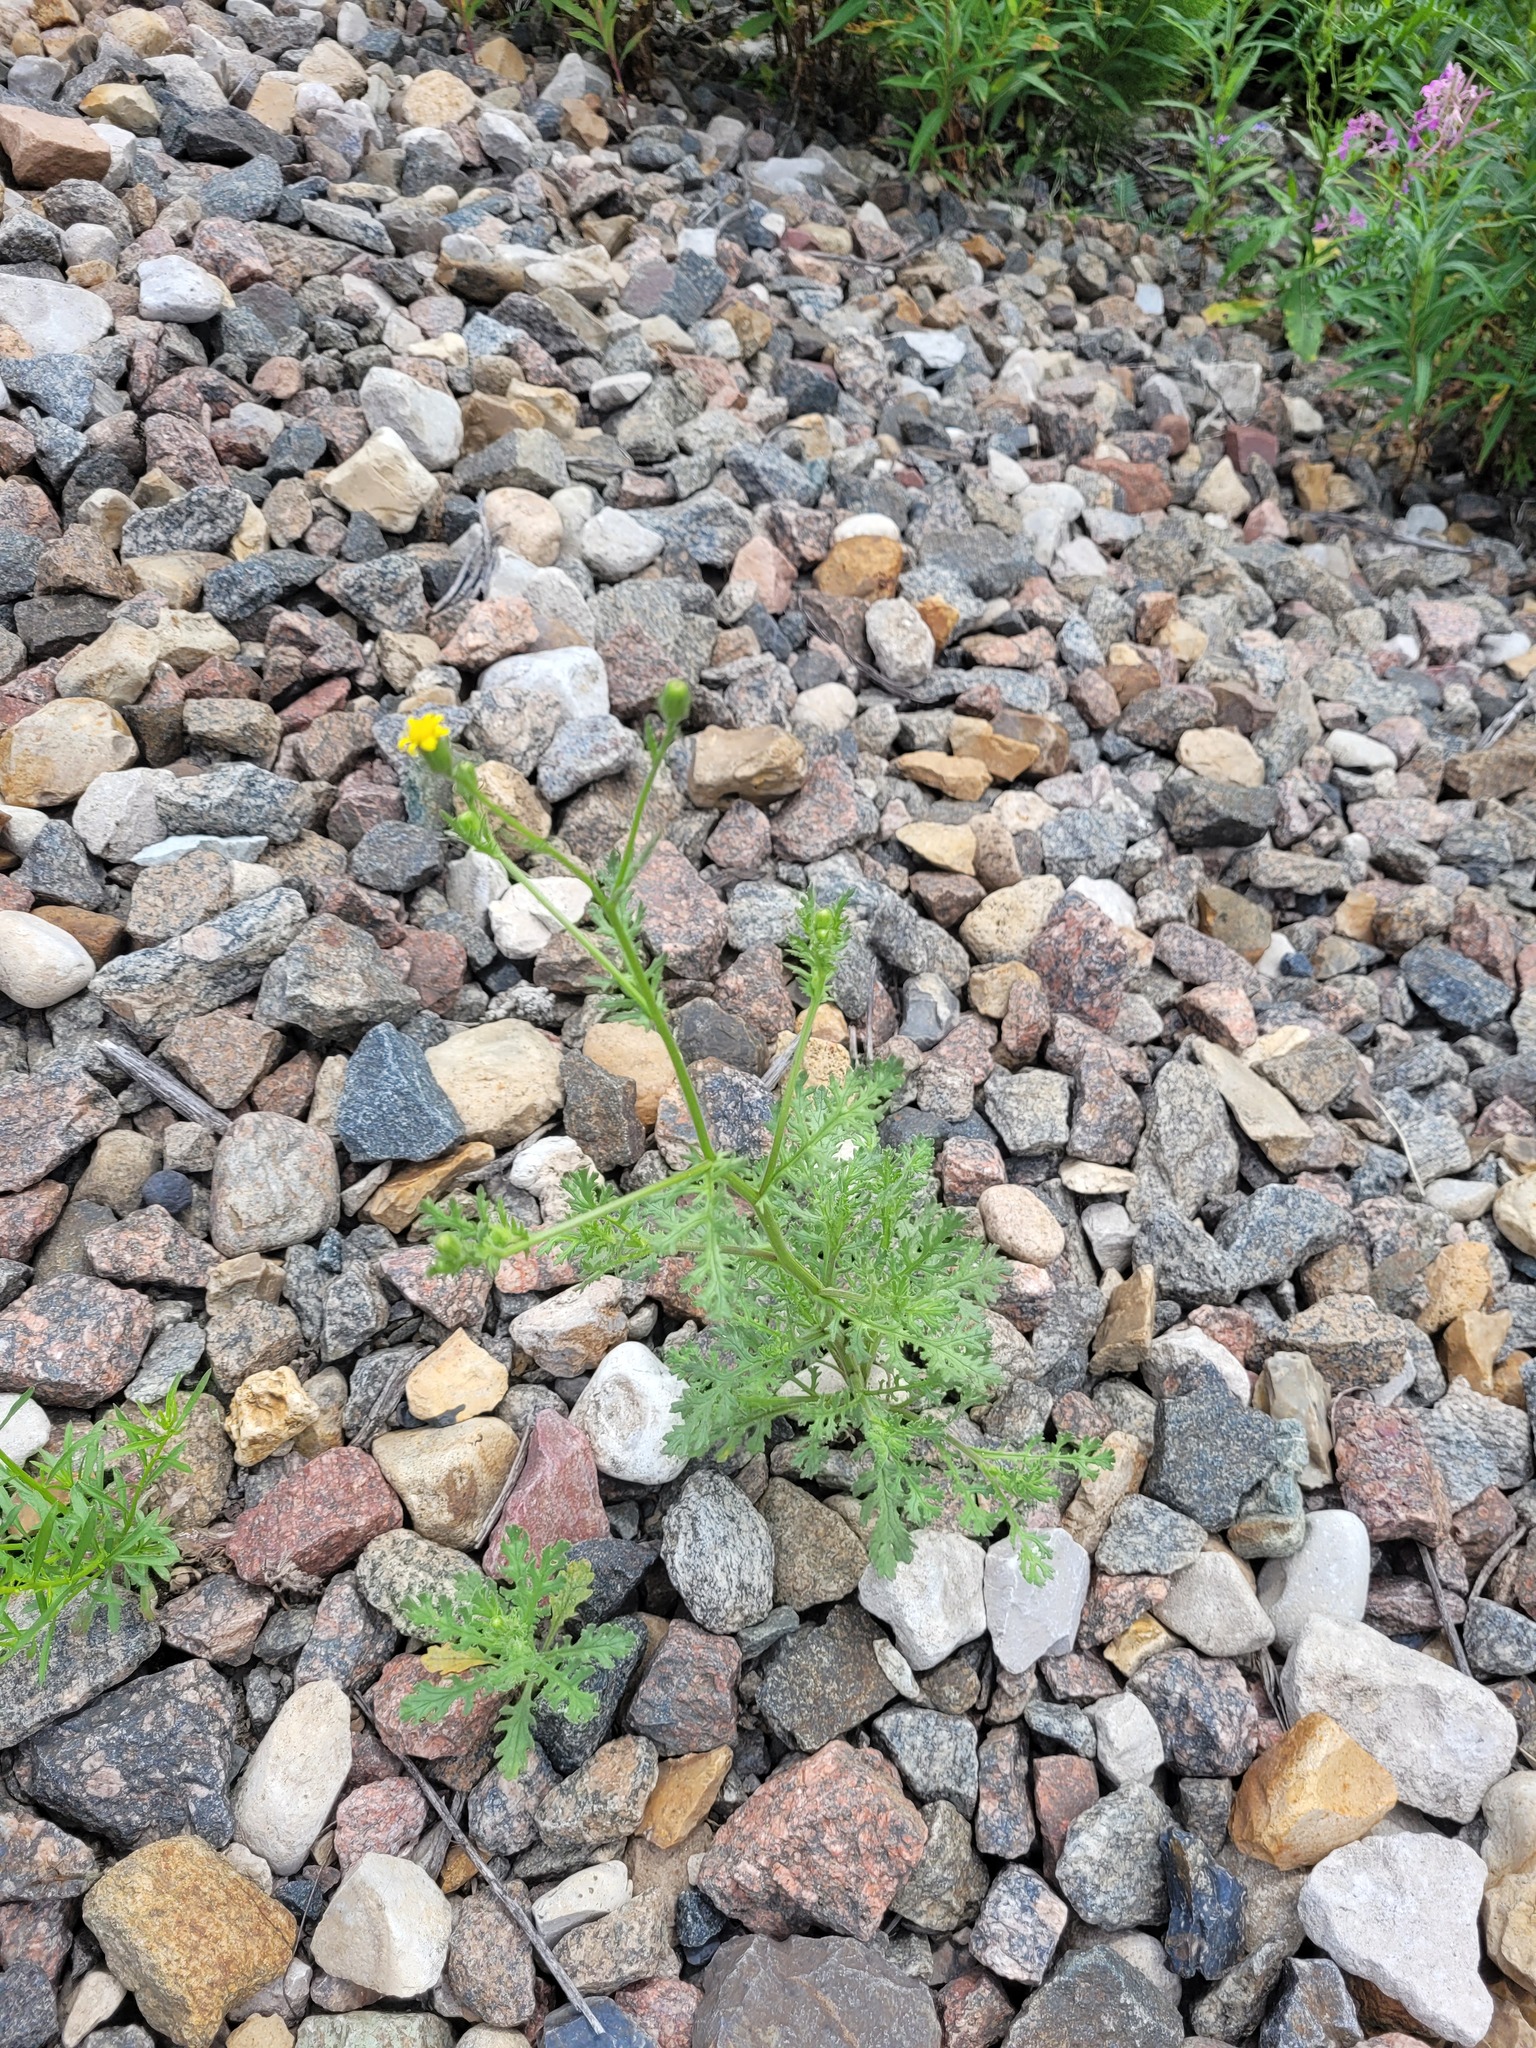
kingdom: Plantae
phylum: Tracheophyta
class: Magnoliopsida
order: Asterales
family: Asteraceae
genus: Senecio
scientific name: Senecio viscosus
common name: Sticky groundsel
